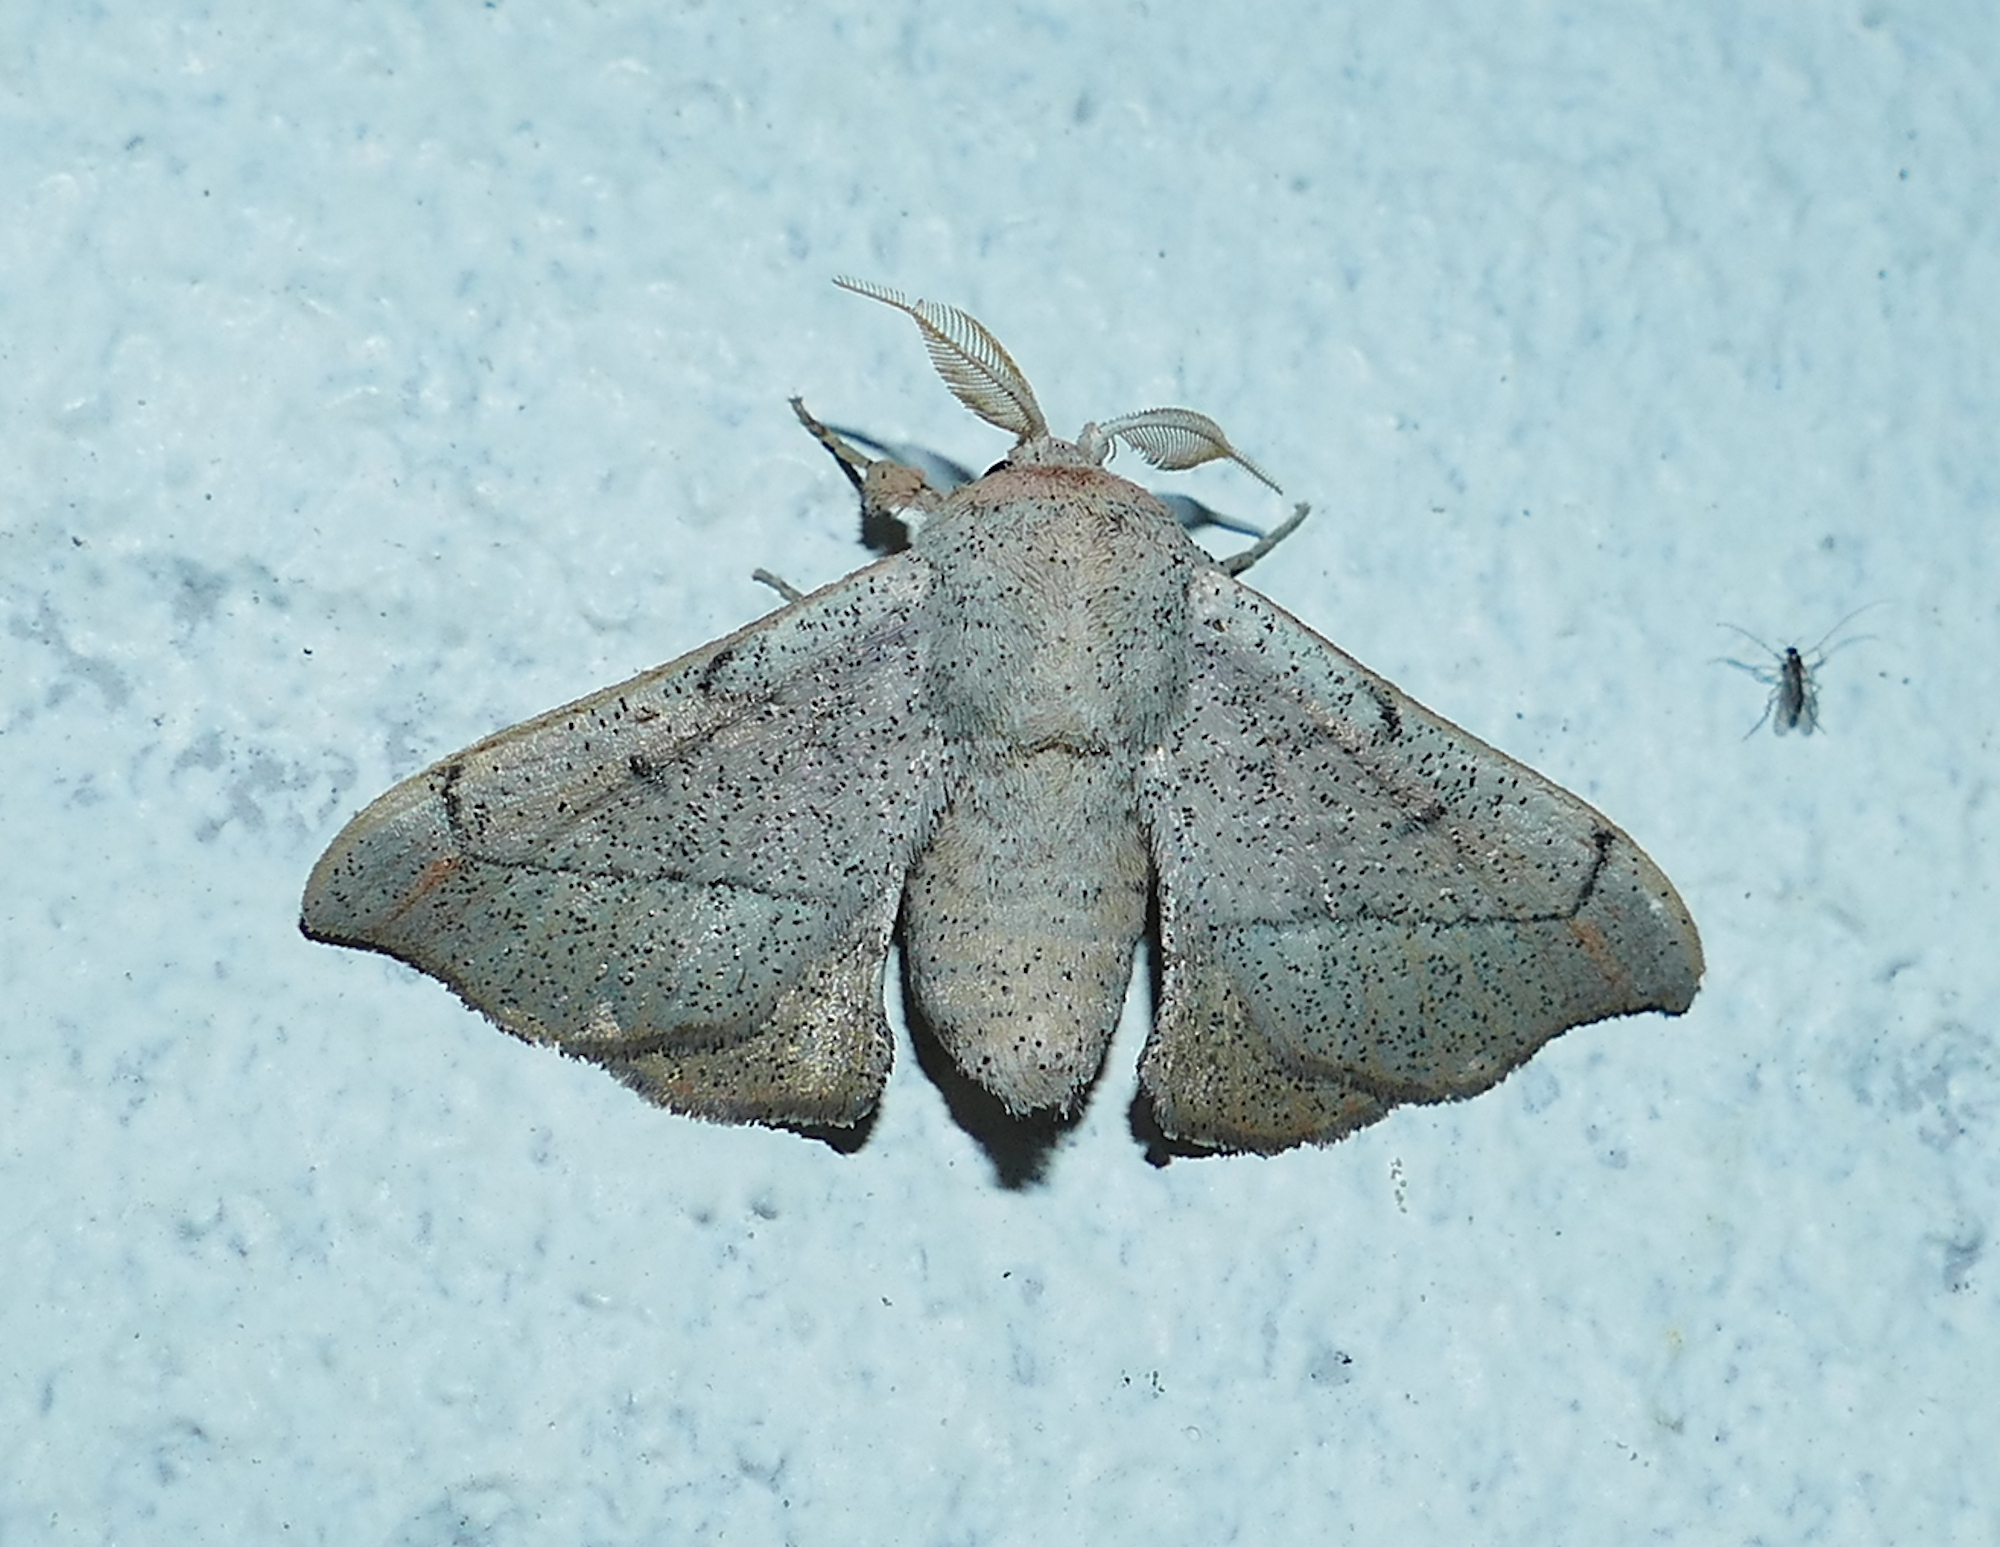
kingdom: Animalia
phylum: Arthropoda
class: Insecta
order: Lepidoptera
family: Mimallonidae
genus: Cicinnus
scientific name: Cicinnus melsheimeri
